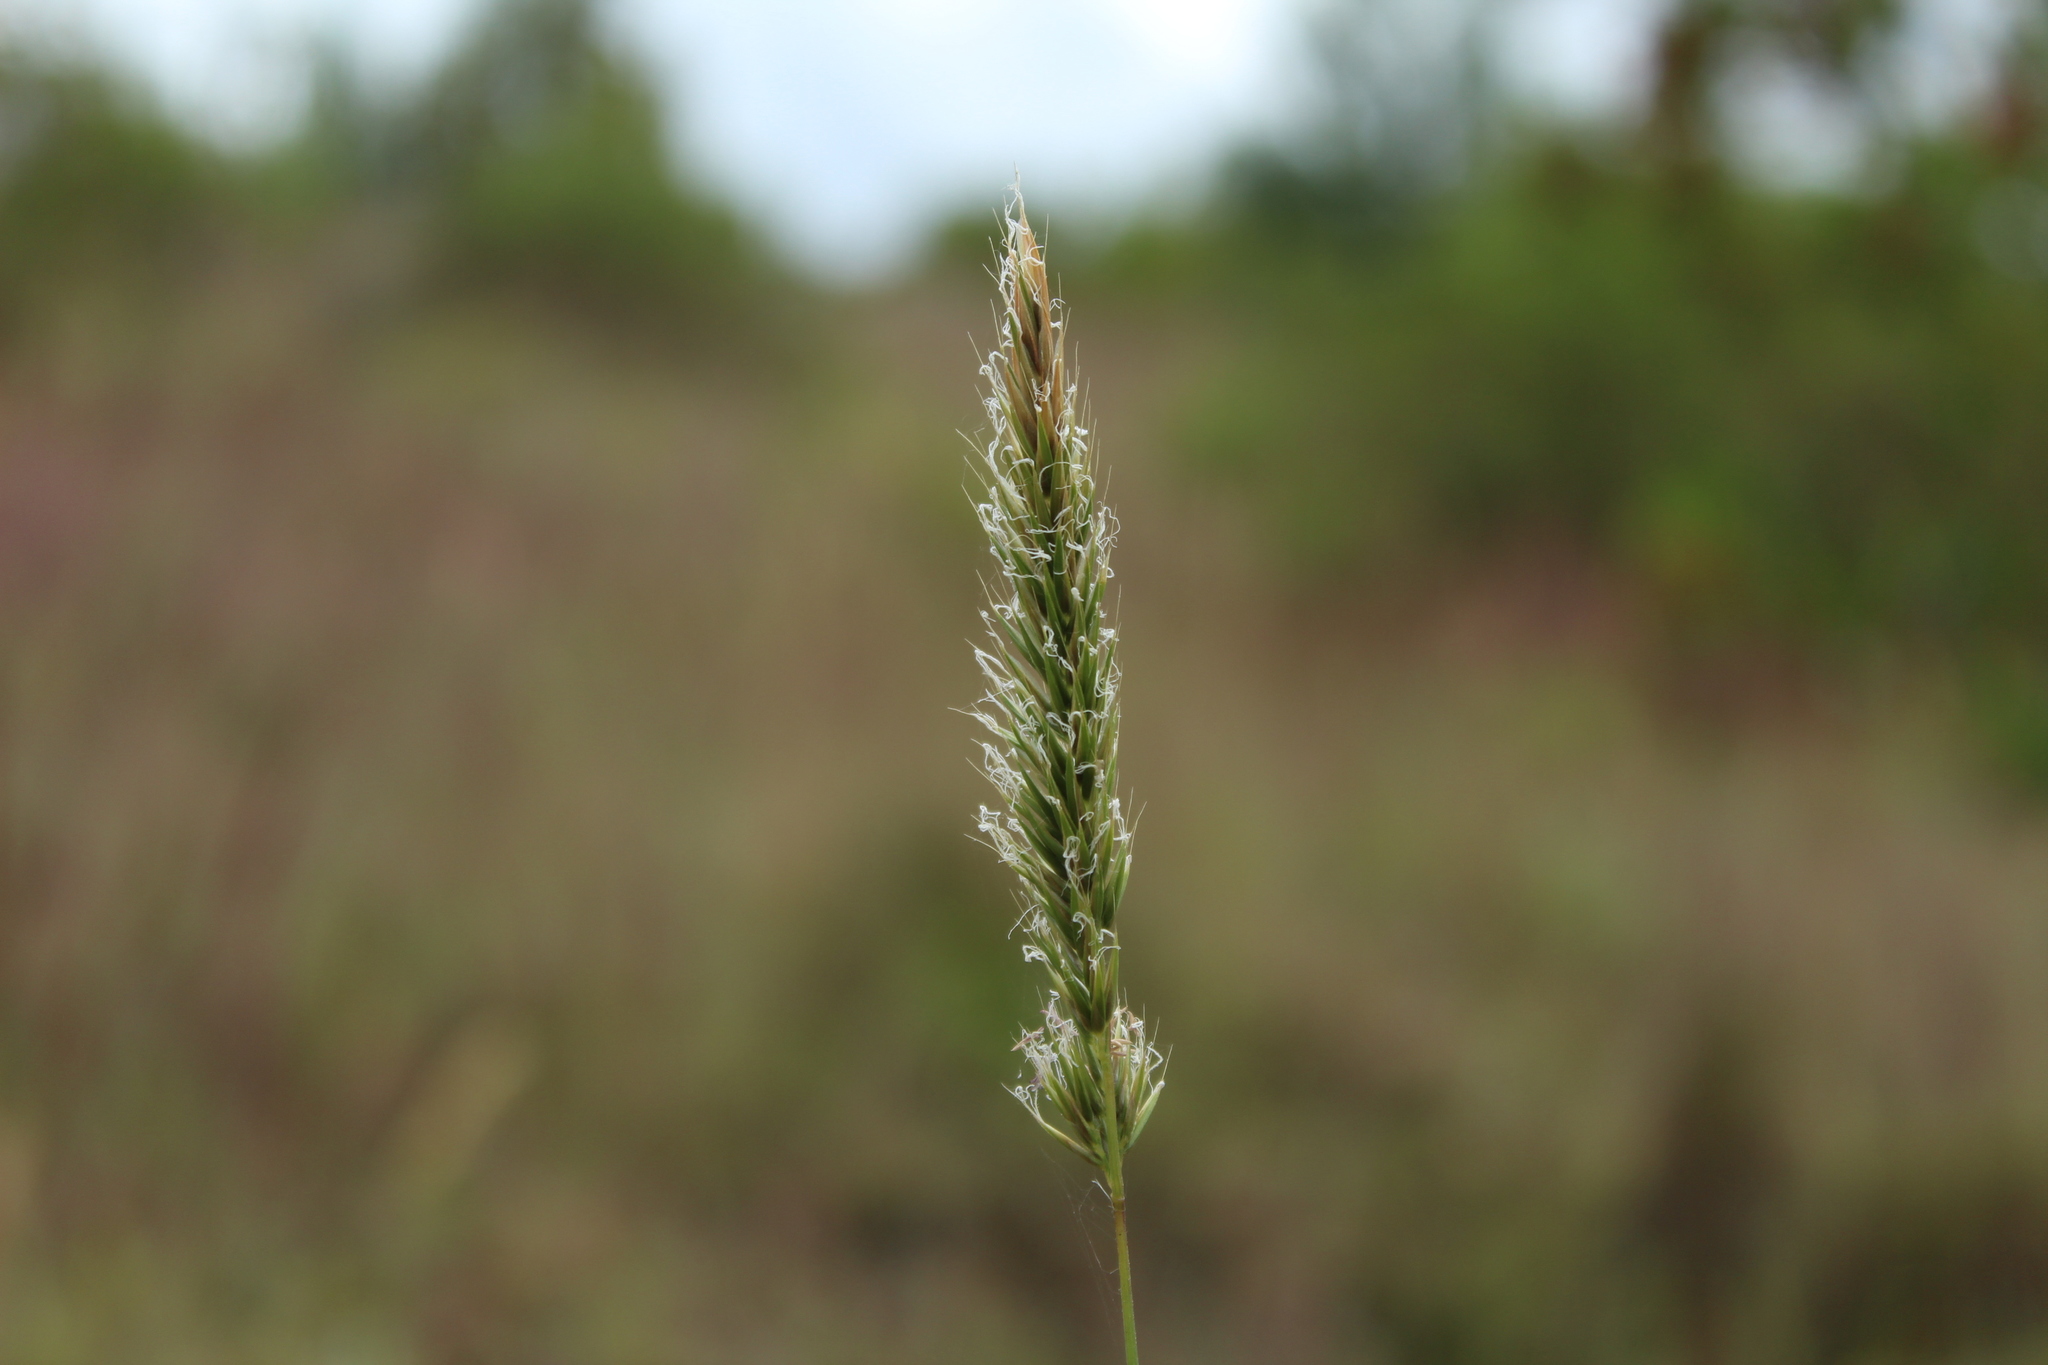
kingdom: Plantae
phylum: Tracheophyta
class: Liliopsida
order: Poales
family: Poaceae
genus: Anthoxanthum
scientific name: Anthoxanthum odoratum
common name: Sweet vernalgrass
